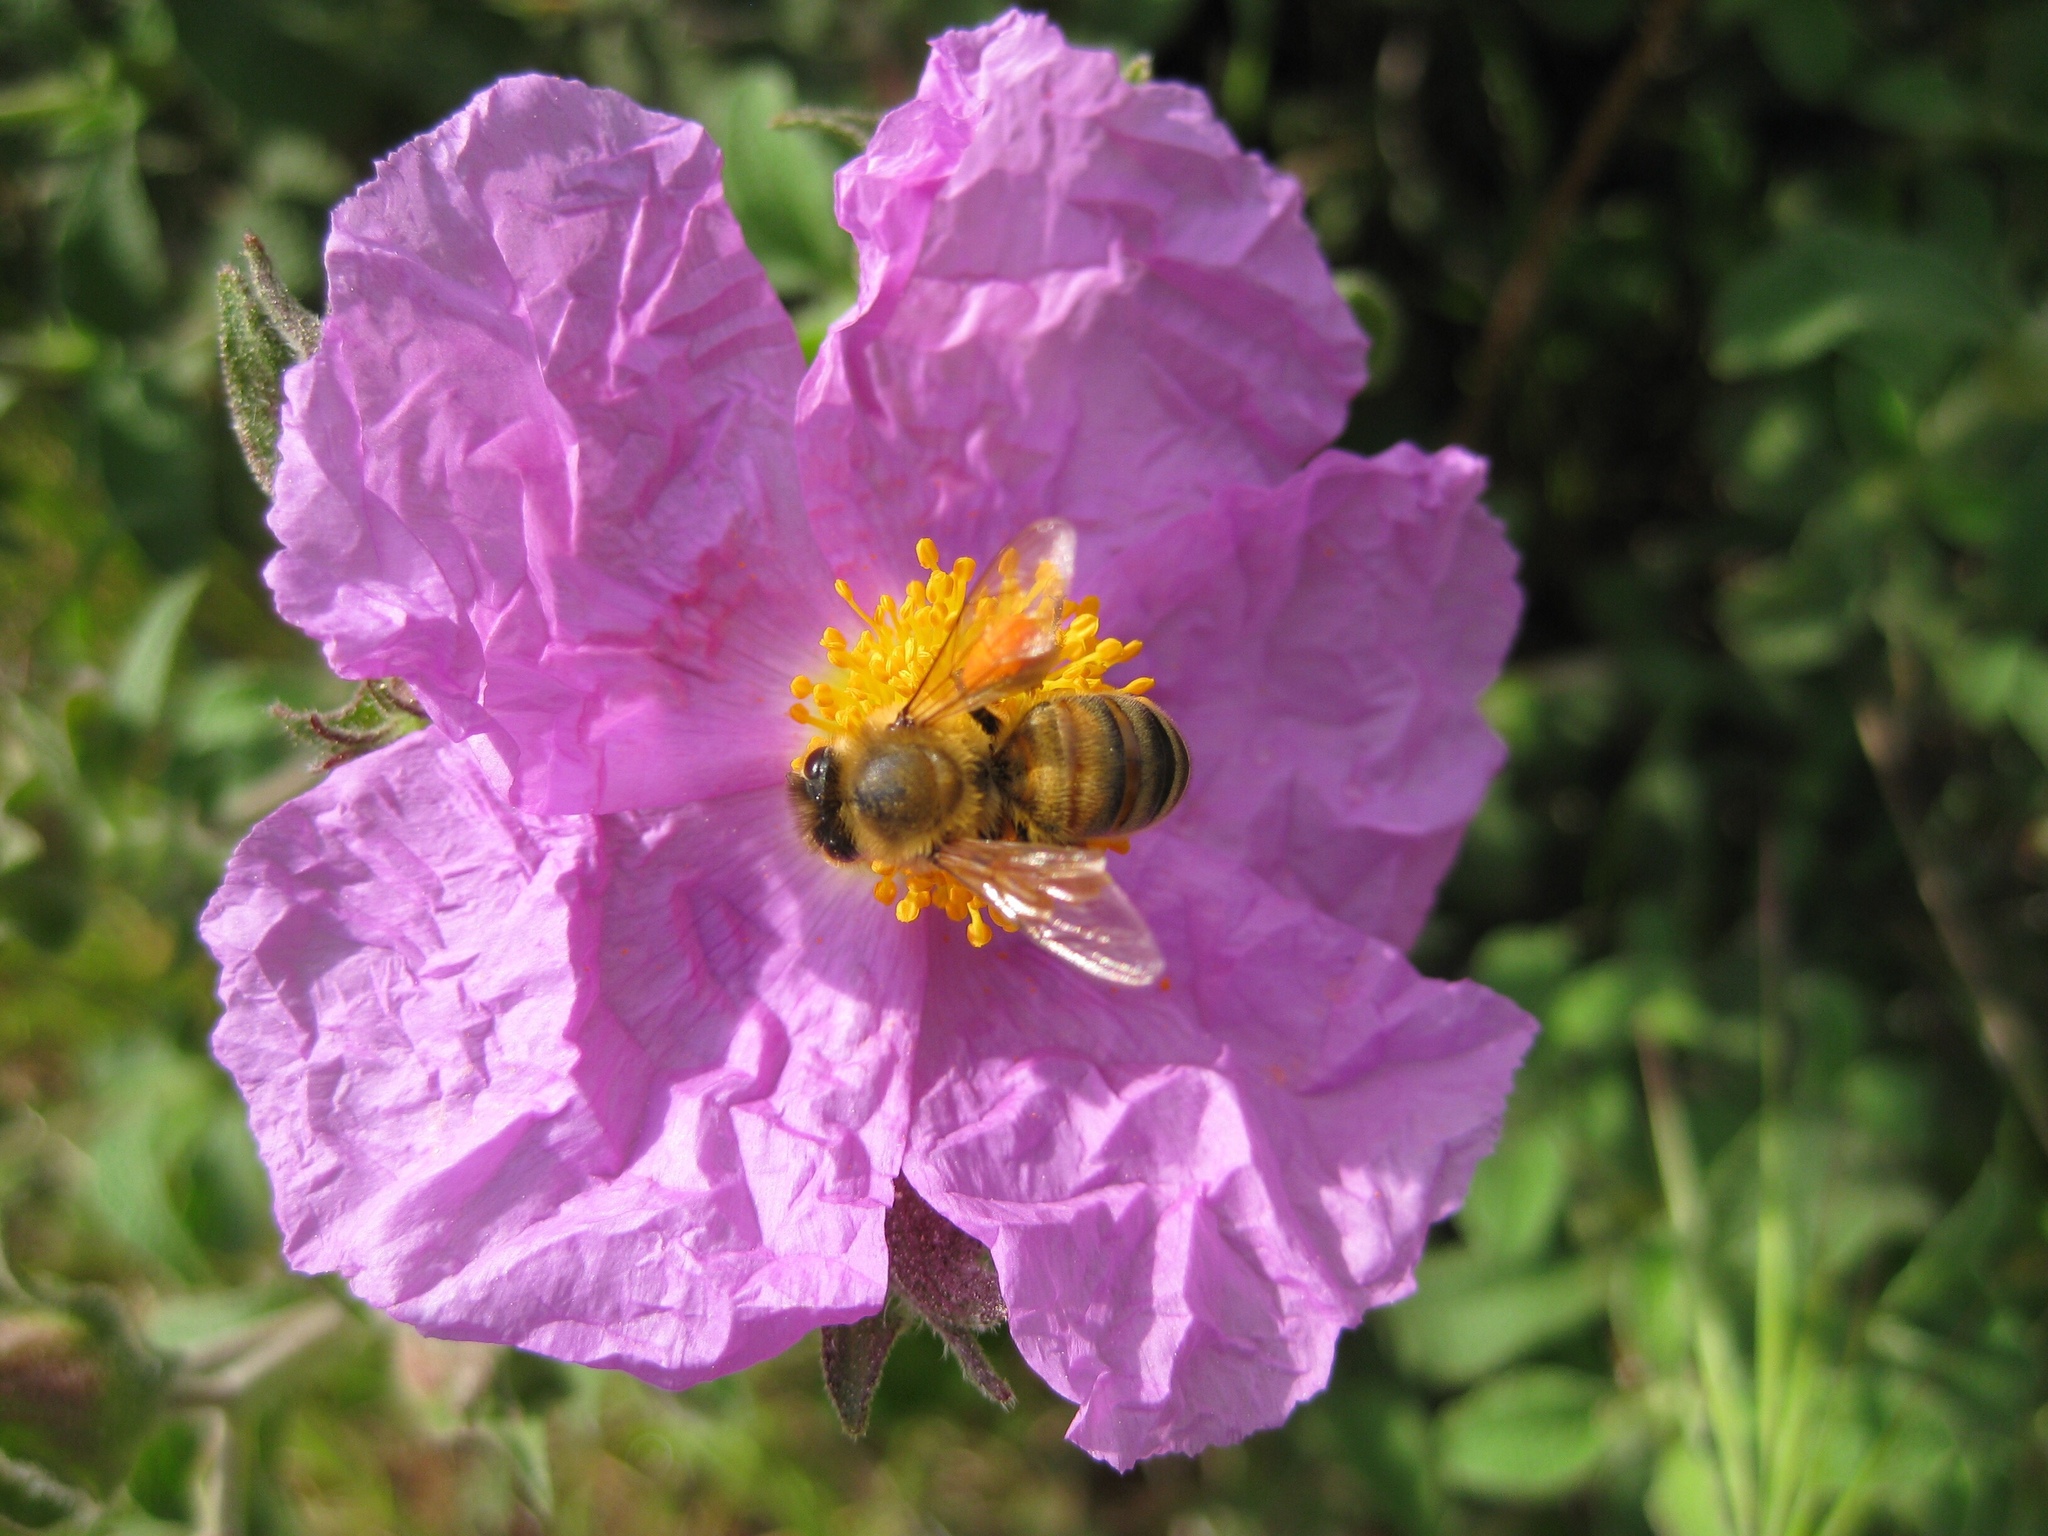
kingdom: Animalia
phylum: Arthropoda
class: Insecta
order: Hymenoptera
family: Apidae
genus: Apis
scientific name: Apis mellifera
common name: Honey bee
